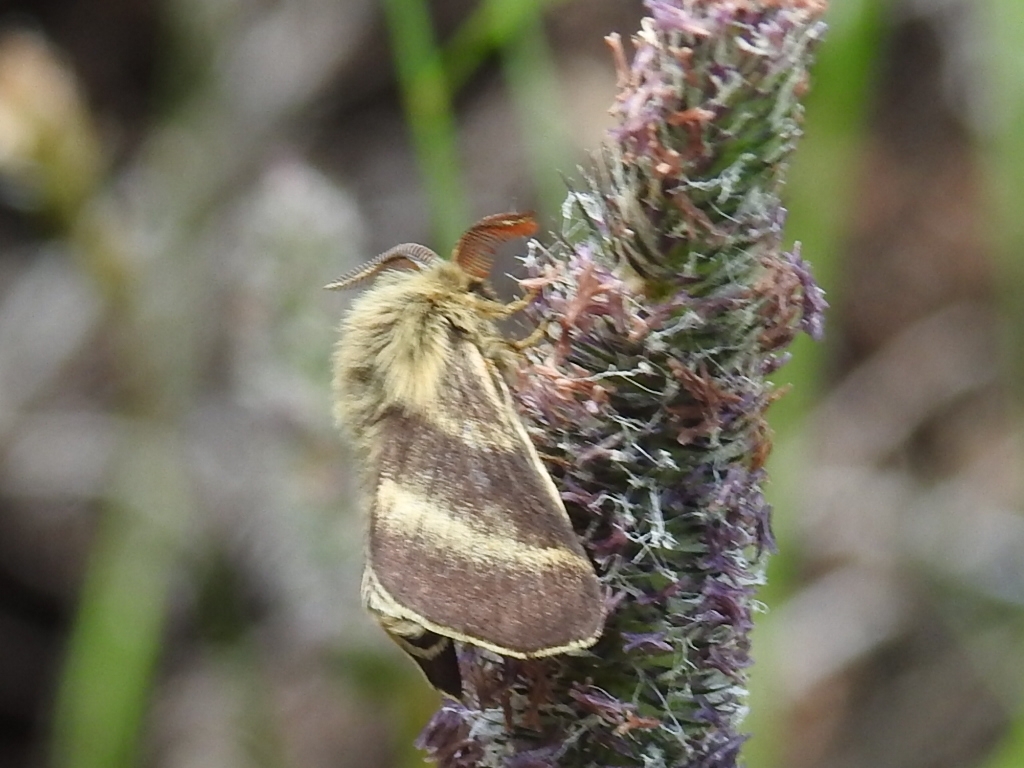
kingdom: Animalia
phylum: Arthropoda
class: Insecta
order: Lepidoptera
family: Lasiocampidae
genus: Malacosoma
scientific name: Malacosoma alpicola
